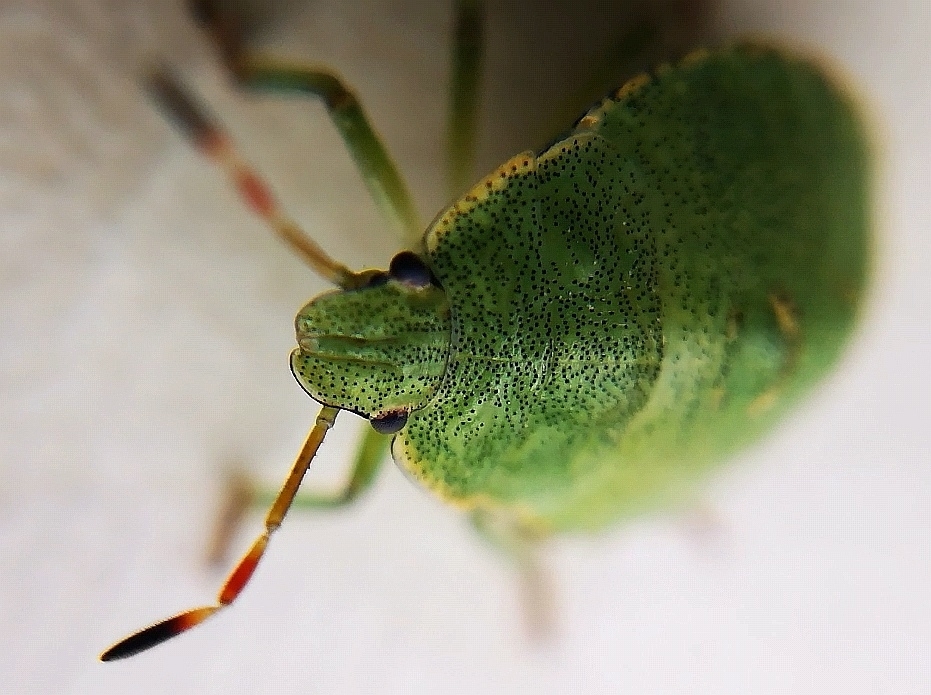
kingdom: Animalia
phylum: Arthropoda
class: Insecta
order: Hemiptera
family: Pentatomidae
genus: Palomena
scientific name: Palomena prasina
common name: Green shieldbug
